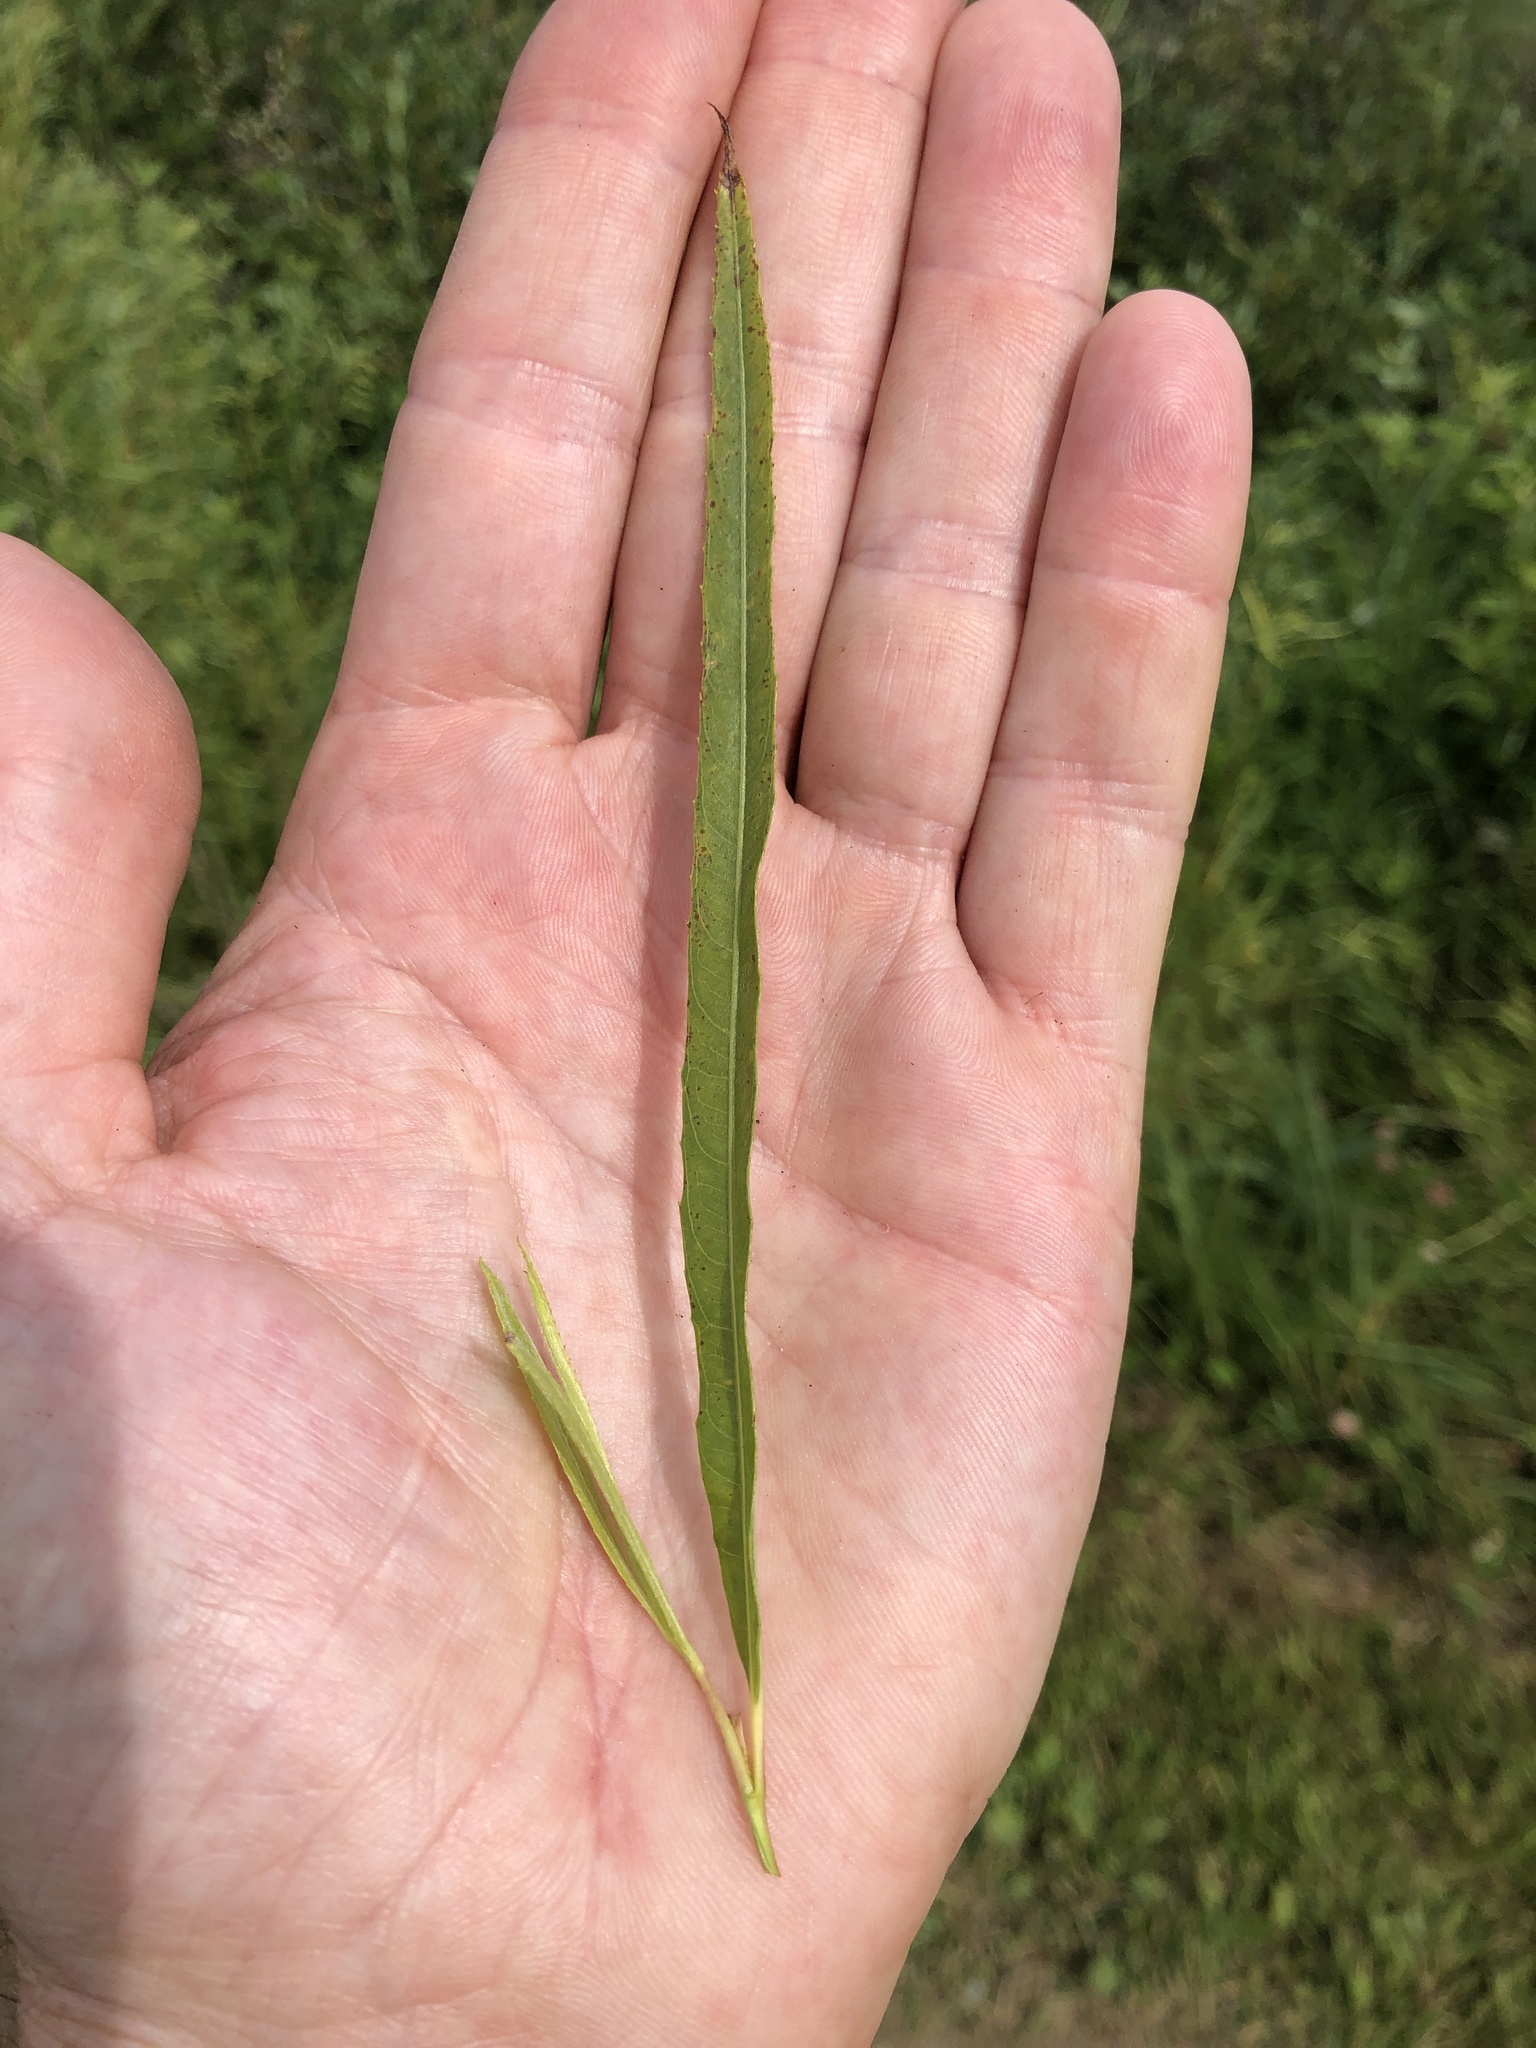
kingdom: Plantae
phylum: Tracheophyta
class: Magnoliopsida
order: Malpighiales
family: Salicaceae
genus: Salix
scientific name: Salix interior
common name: Sandbar willow
